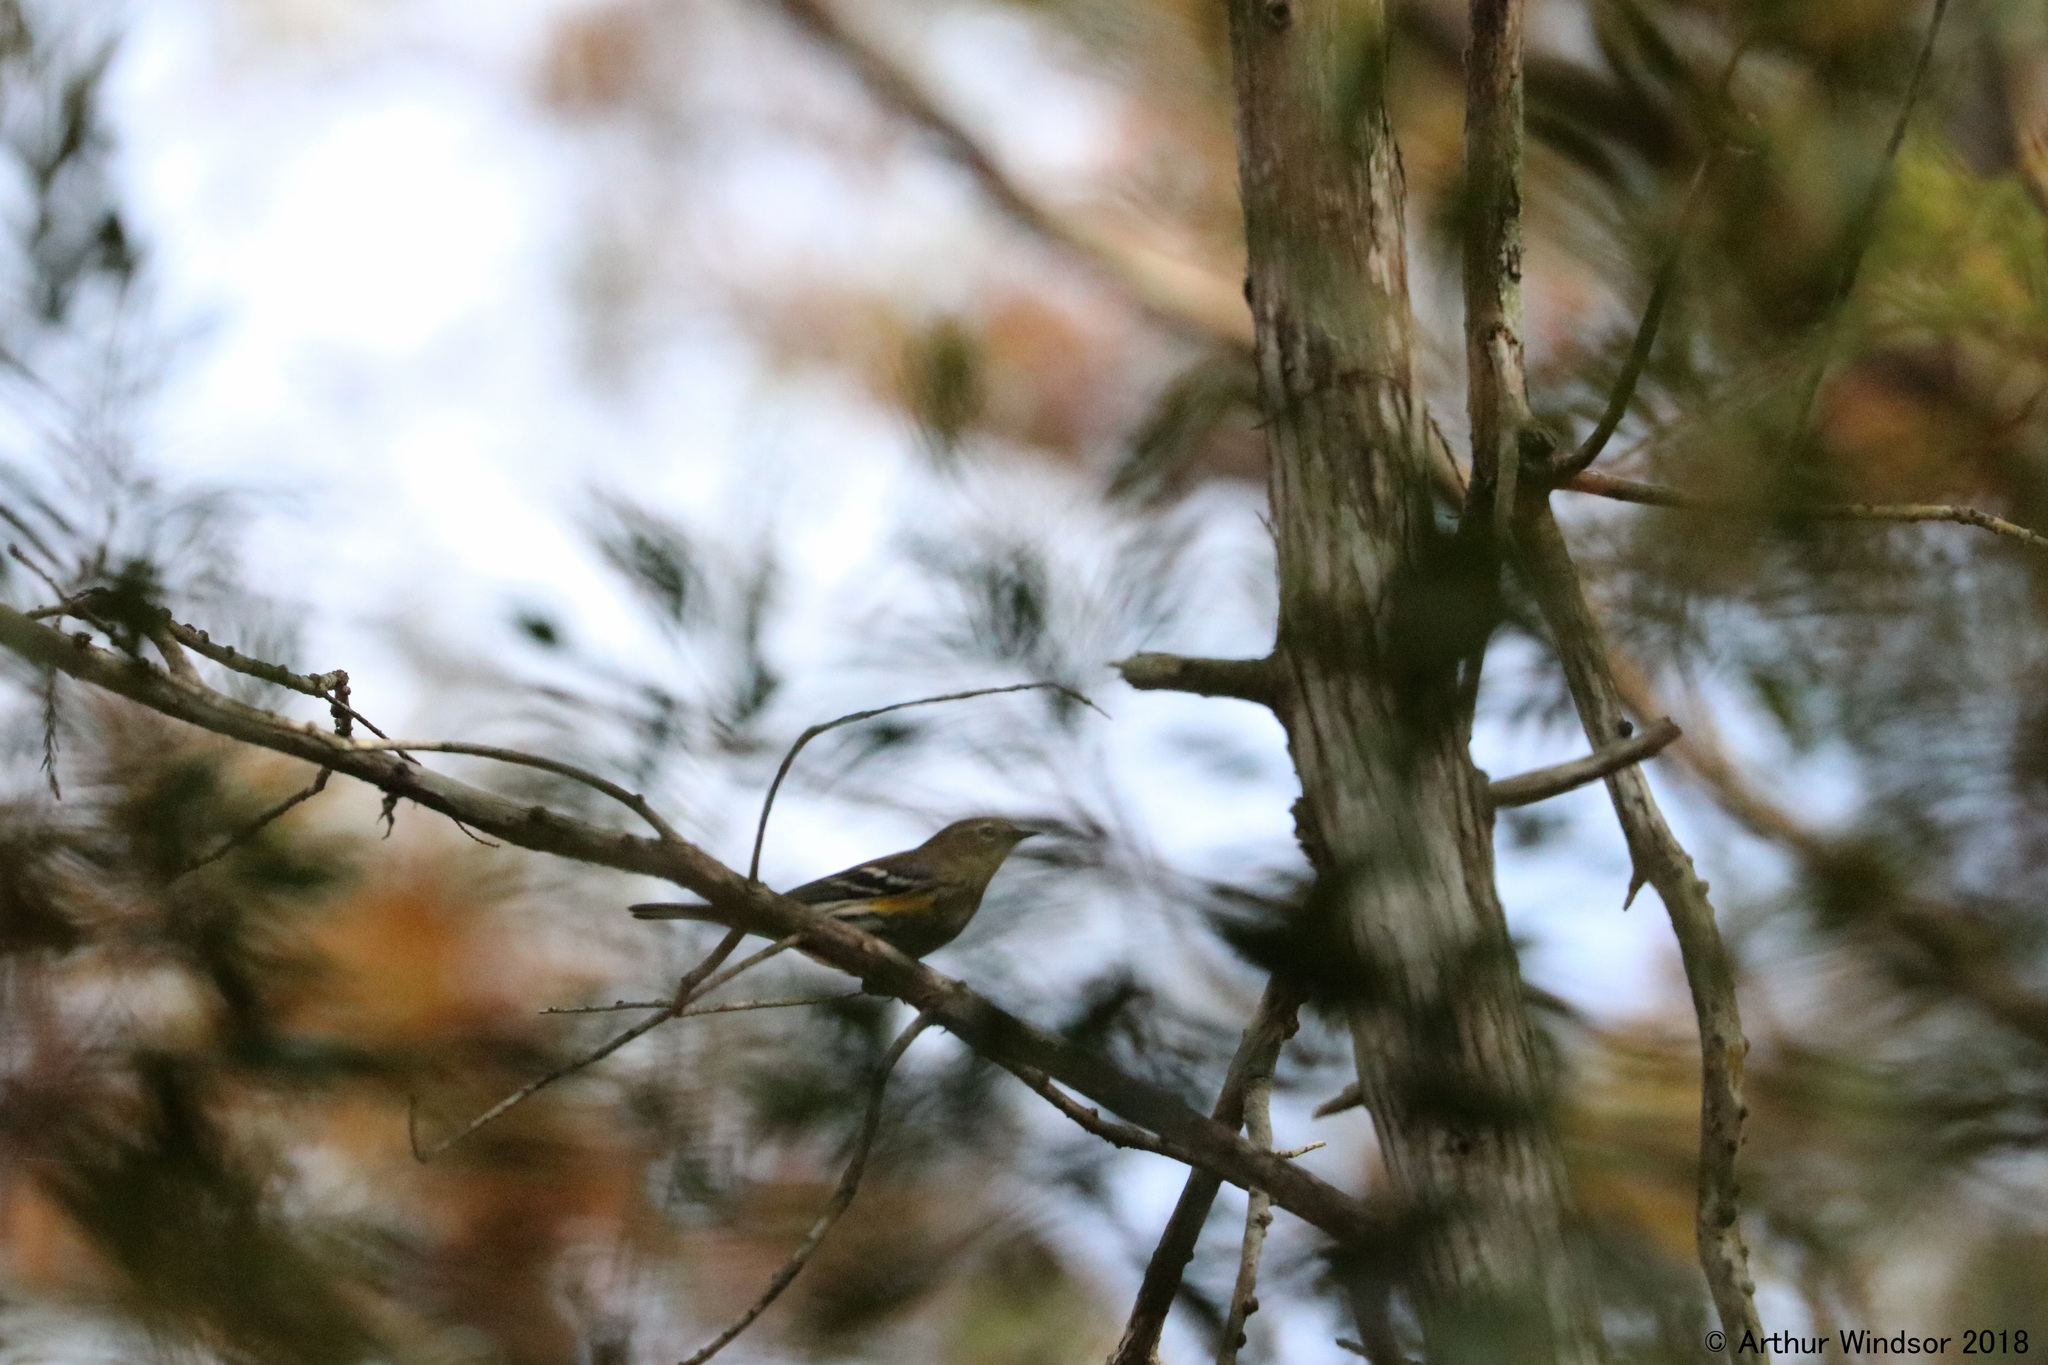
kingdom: Animalia
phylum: Chordata
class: Aves
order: Passeriformes
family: Parulidae
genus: Setophaga
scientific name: Setophaga pinus
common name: Pine warbler
